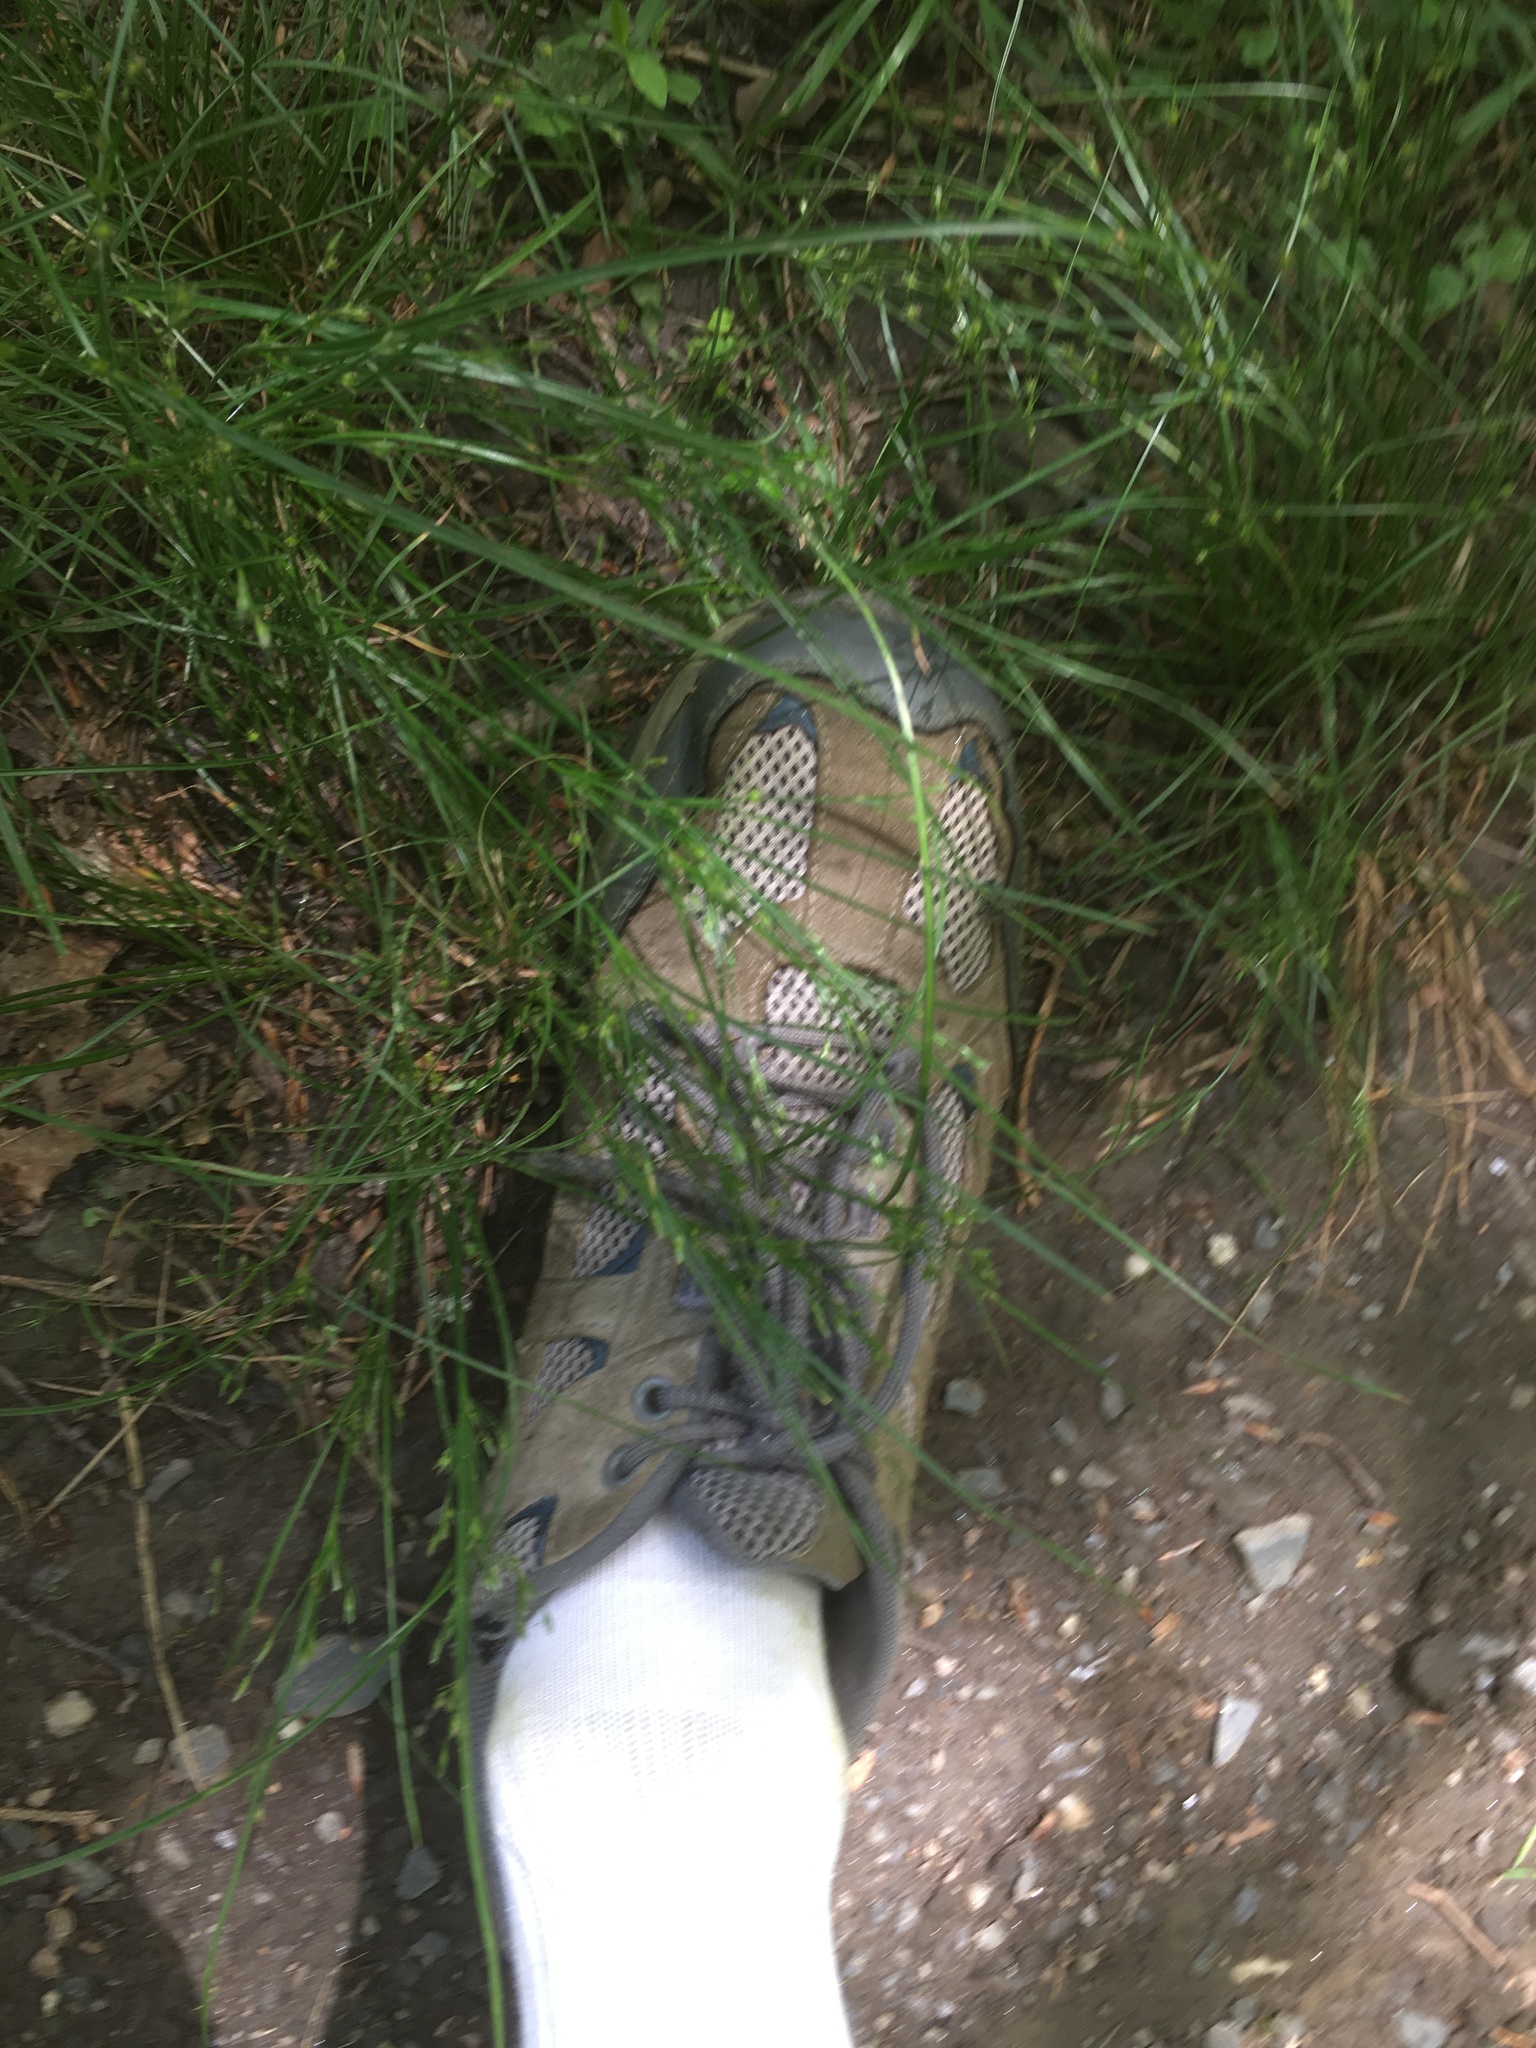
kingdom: Plantae
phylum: Tracheophyta
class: Liliopsida
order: Poales
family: Juncaceae
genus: Juncus
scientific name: Juncus tenuis
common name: Slender rush
